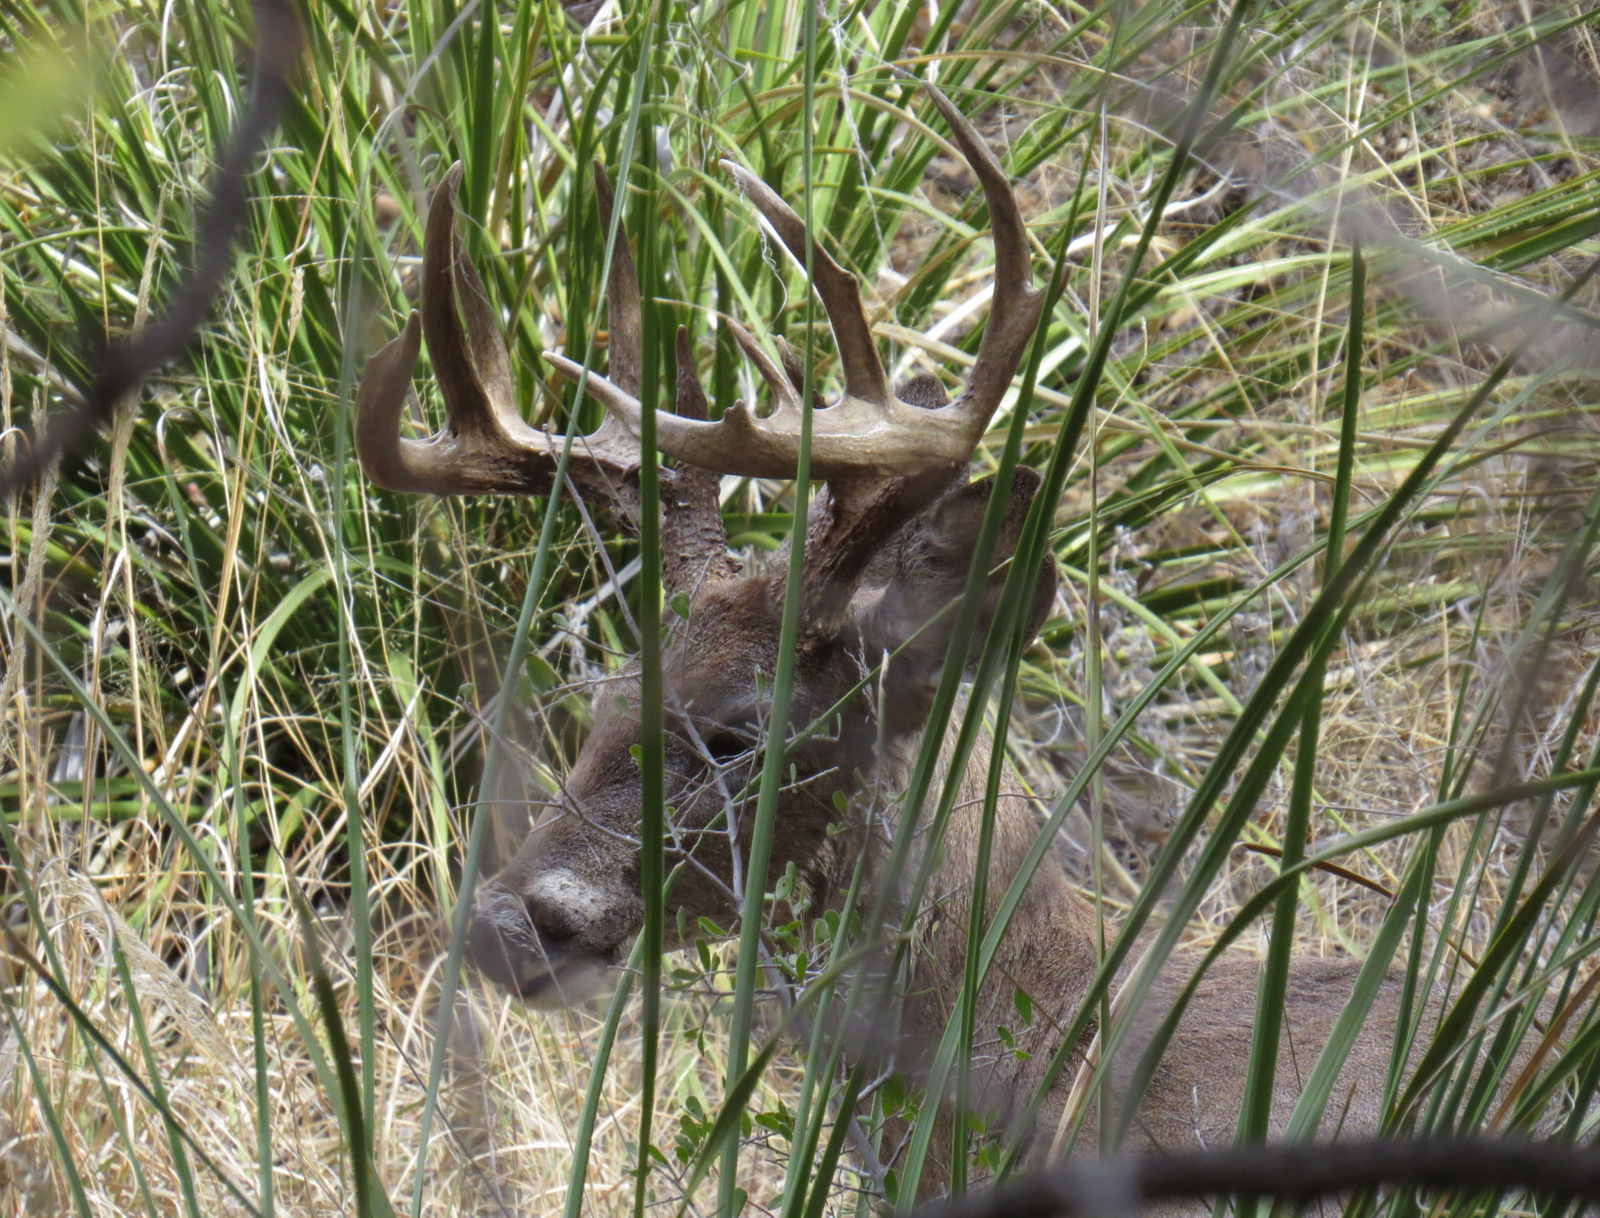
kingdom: Animalia
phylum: Chordata
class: Mammalia
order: Artiodactyla
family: Cervidae
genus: Odocoileus
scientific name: Odocoileus virginianus
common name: White-tailed deer
